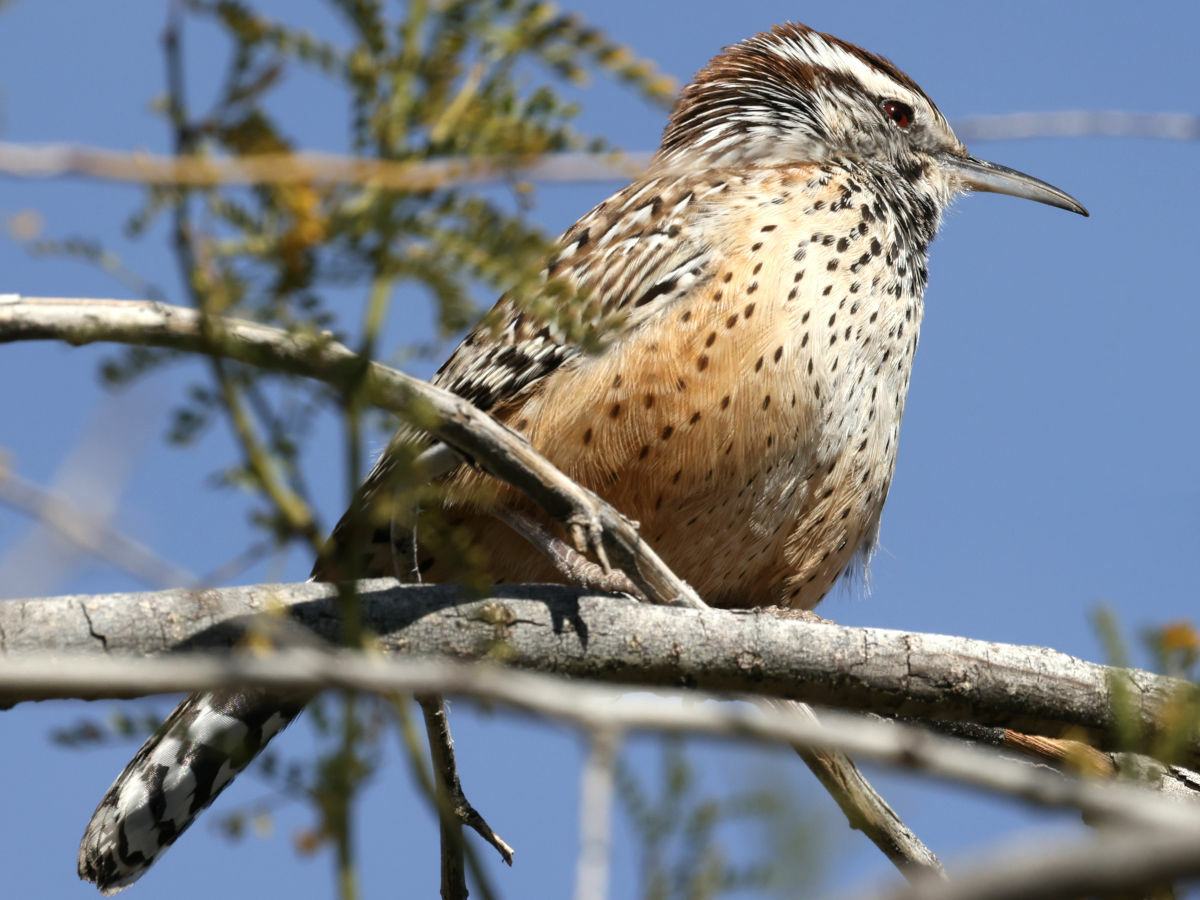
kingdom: Animalia
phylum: Chordata
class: Aves
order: Passeriformes
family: Troglodytidae
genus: Campylorhynchus
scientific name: Campylorhynchus brunneicapillus
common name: Cactus wren
